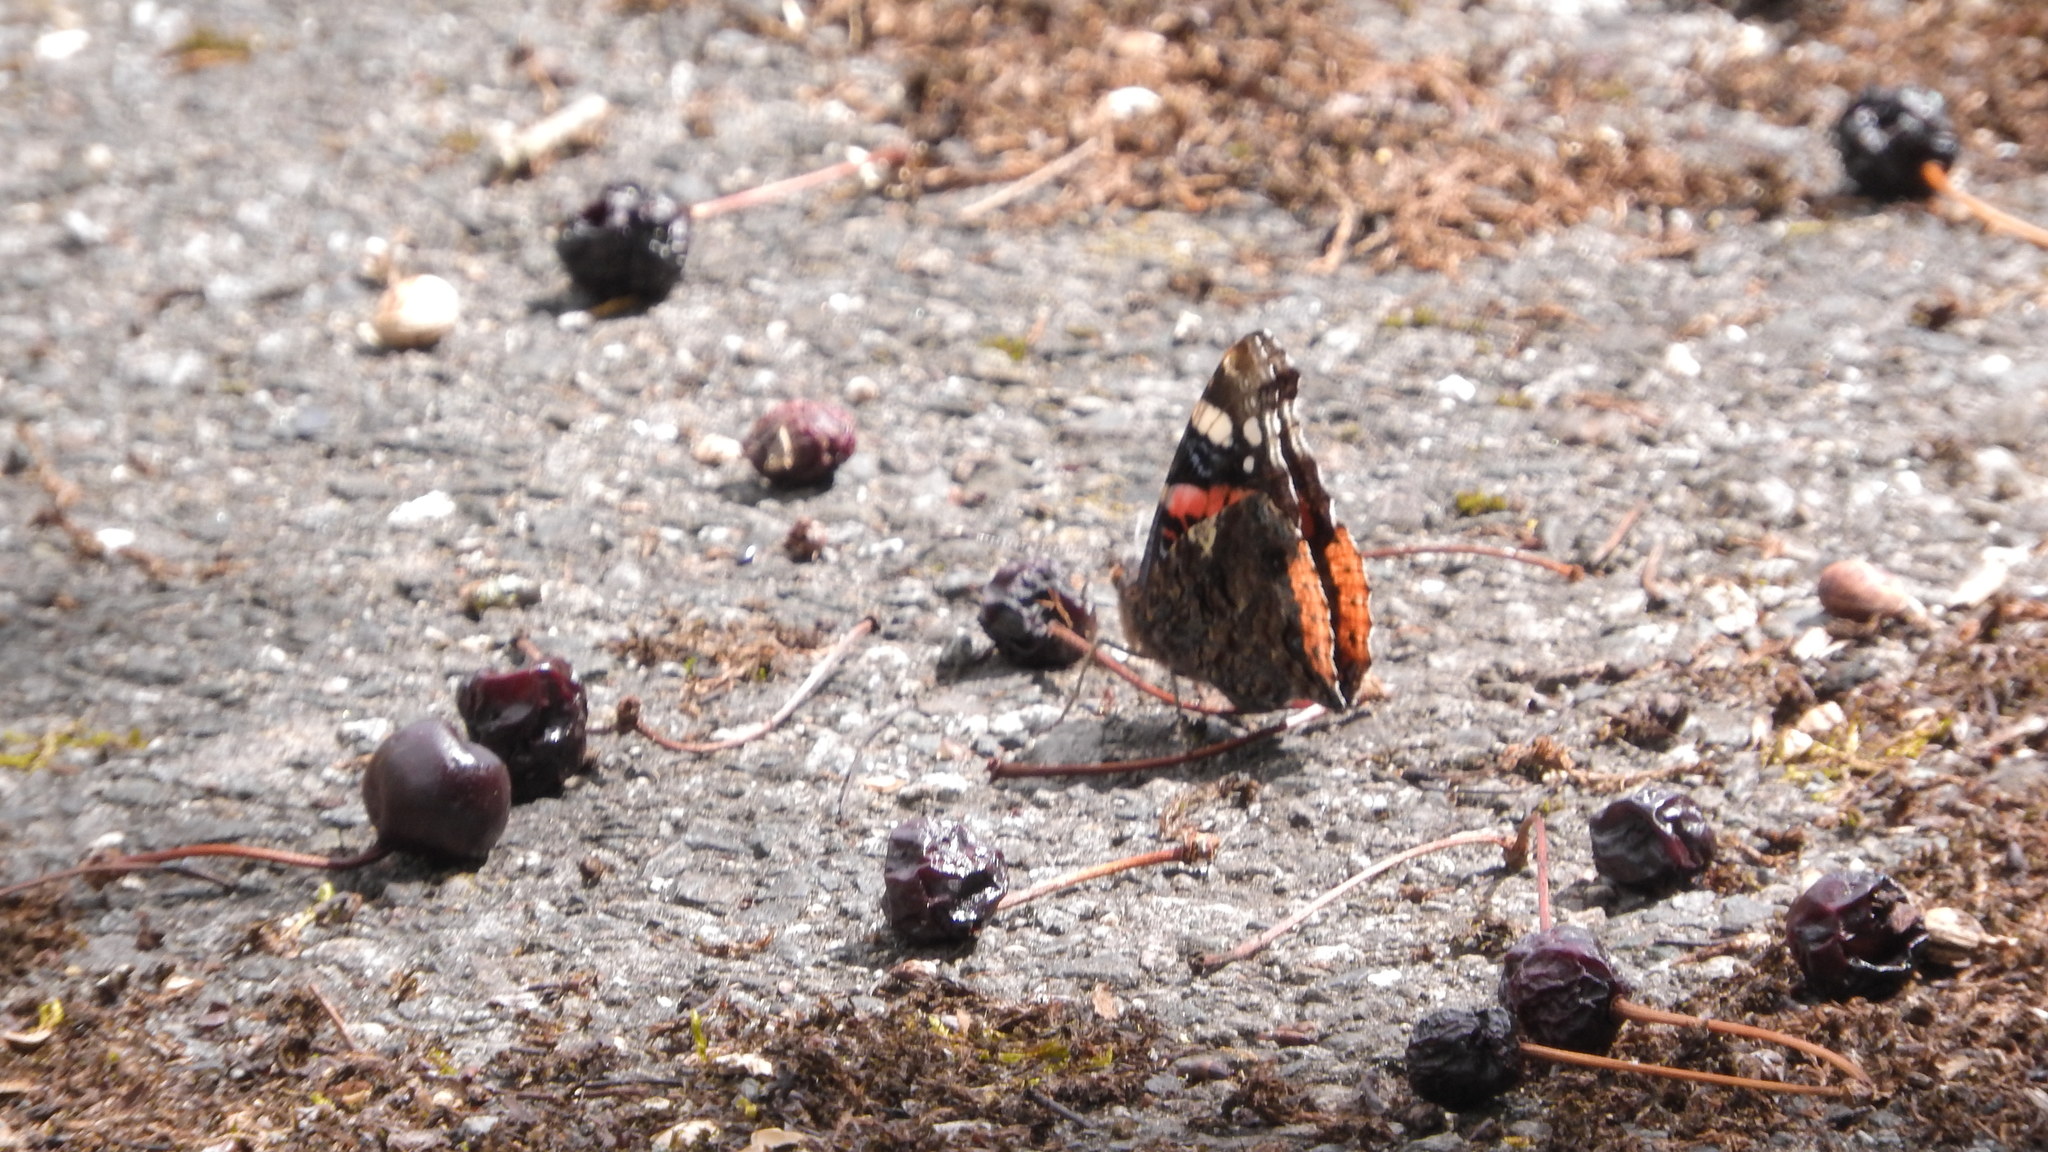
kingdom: Animalia
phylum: Arthropoda
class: Insecta
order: Lepidoptera
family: Nymphalidae
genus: Vanessa
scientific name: Vanessa atalanta
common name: Red admiral
